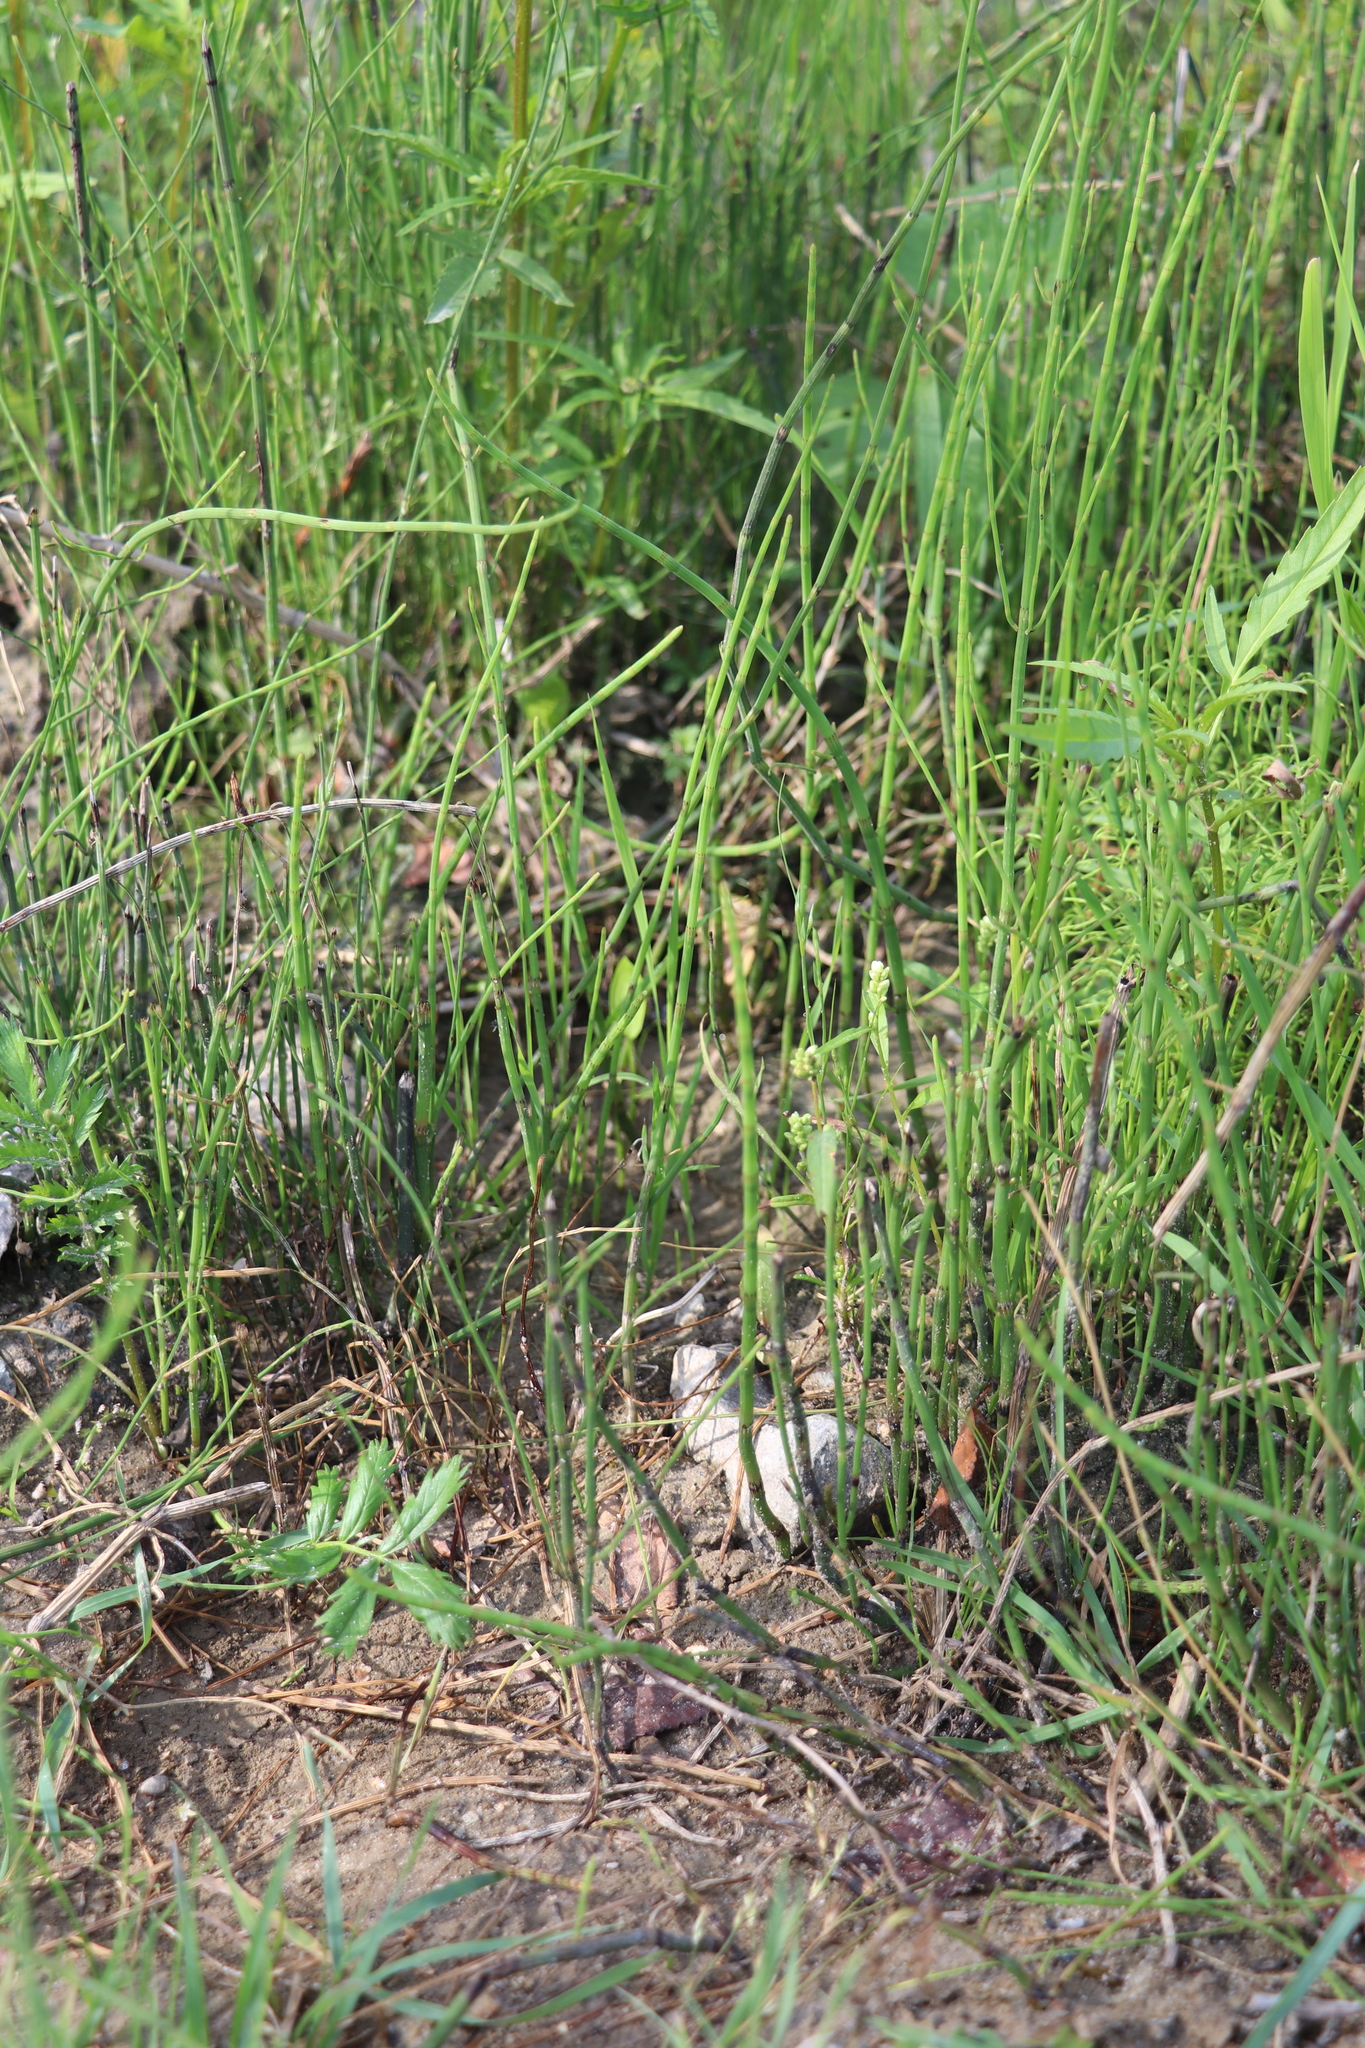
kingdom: Plantae
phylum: Tracheophyta
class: Polypodiopsida
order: Equisetales
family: Equisetaceae
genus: Equisetum
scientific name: Equisetum fluviatile
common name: Water horsetail
